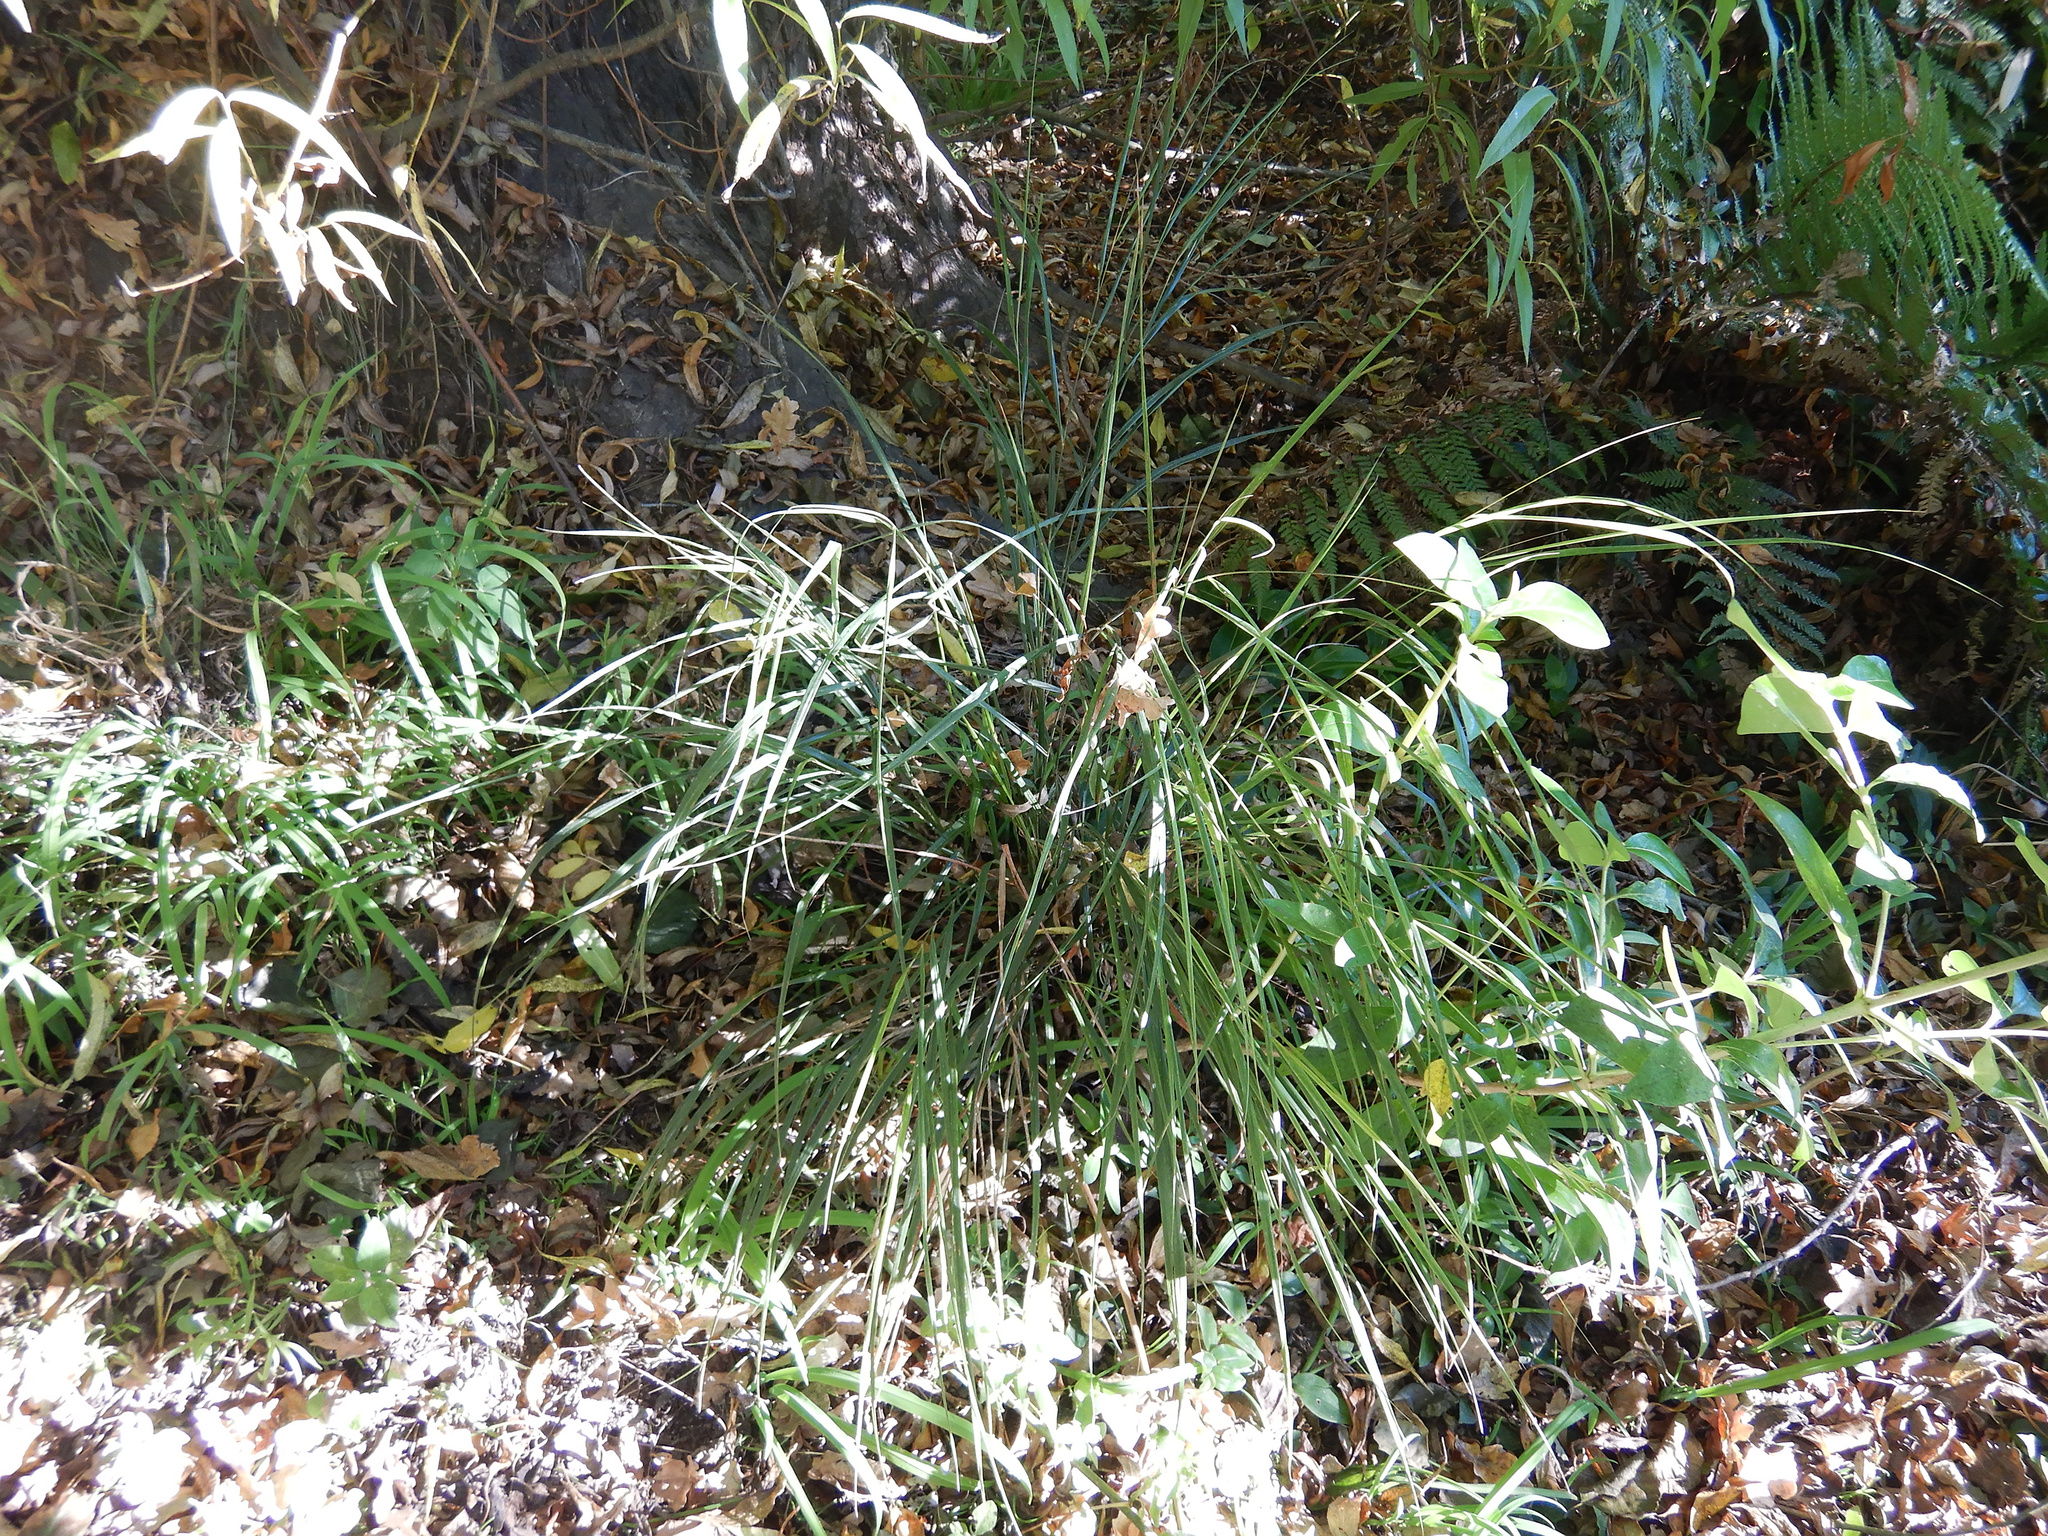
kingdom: Plantae
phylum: Tracheophyta
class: Liliopsida
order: Poales
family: Poaceae
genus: Anemanthele
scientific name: Anemanthele lessoniana
